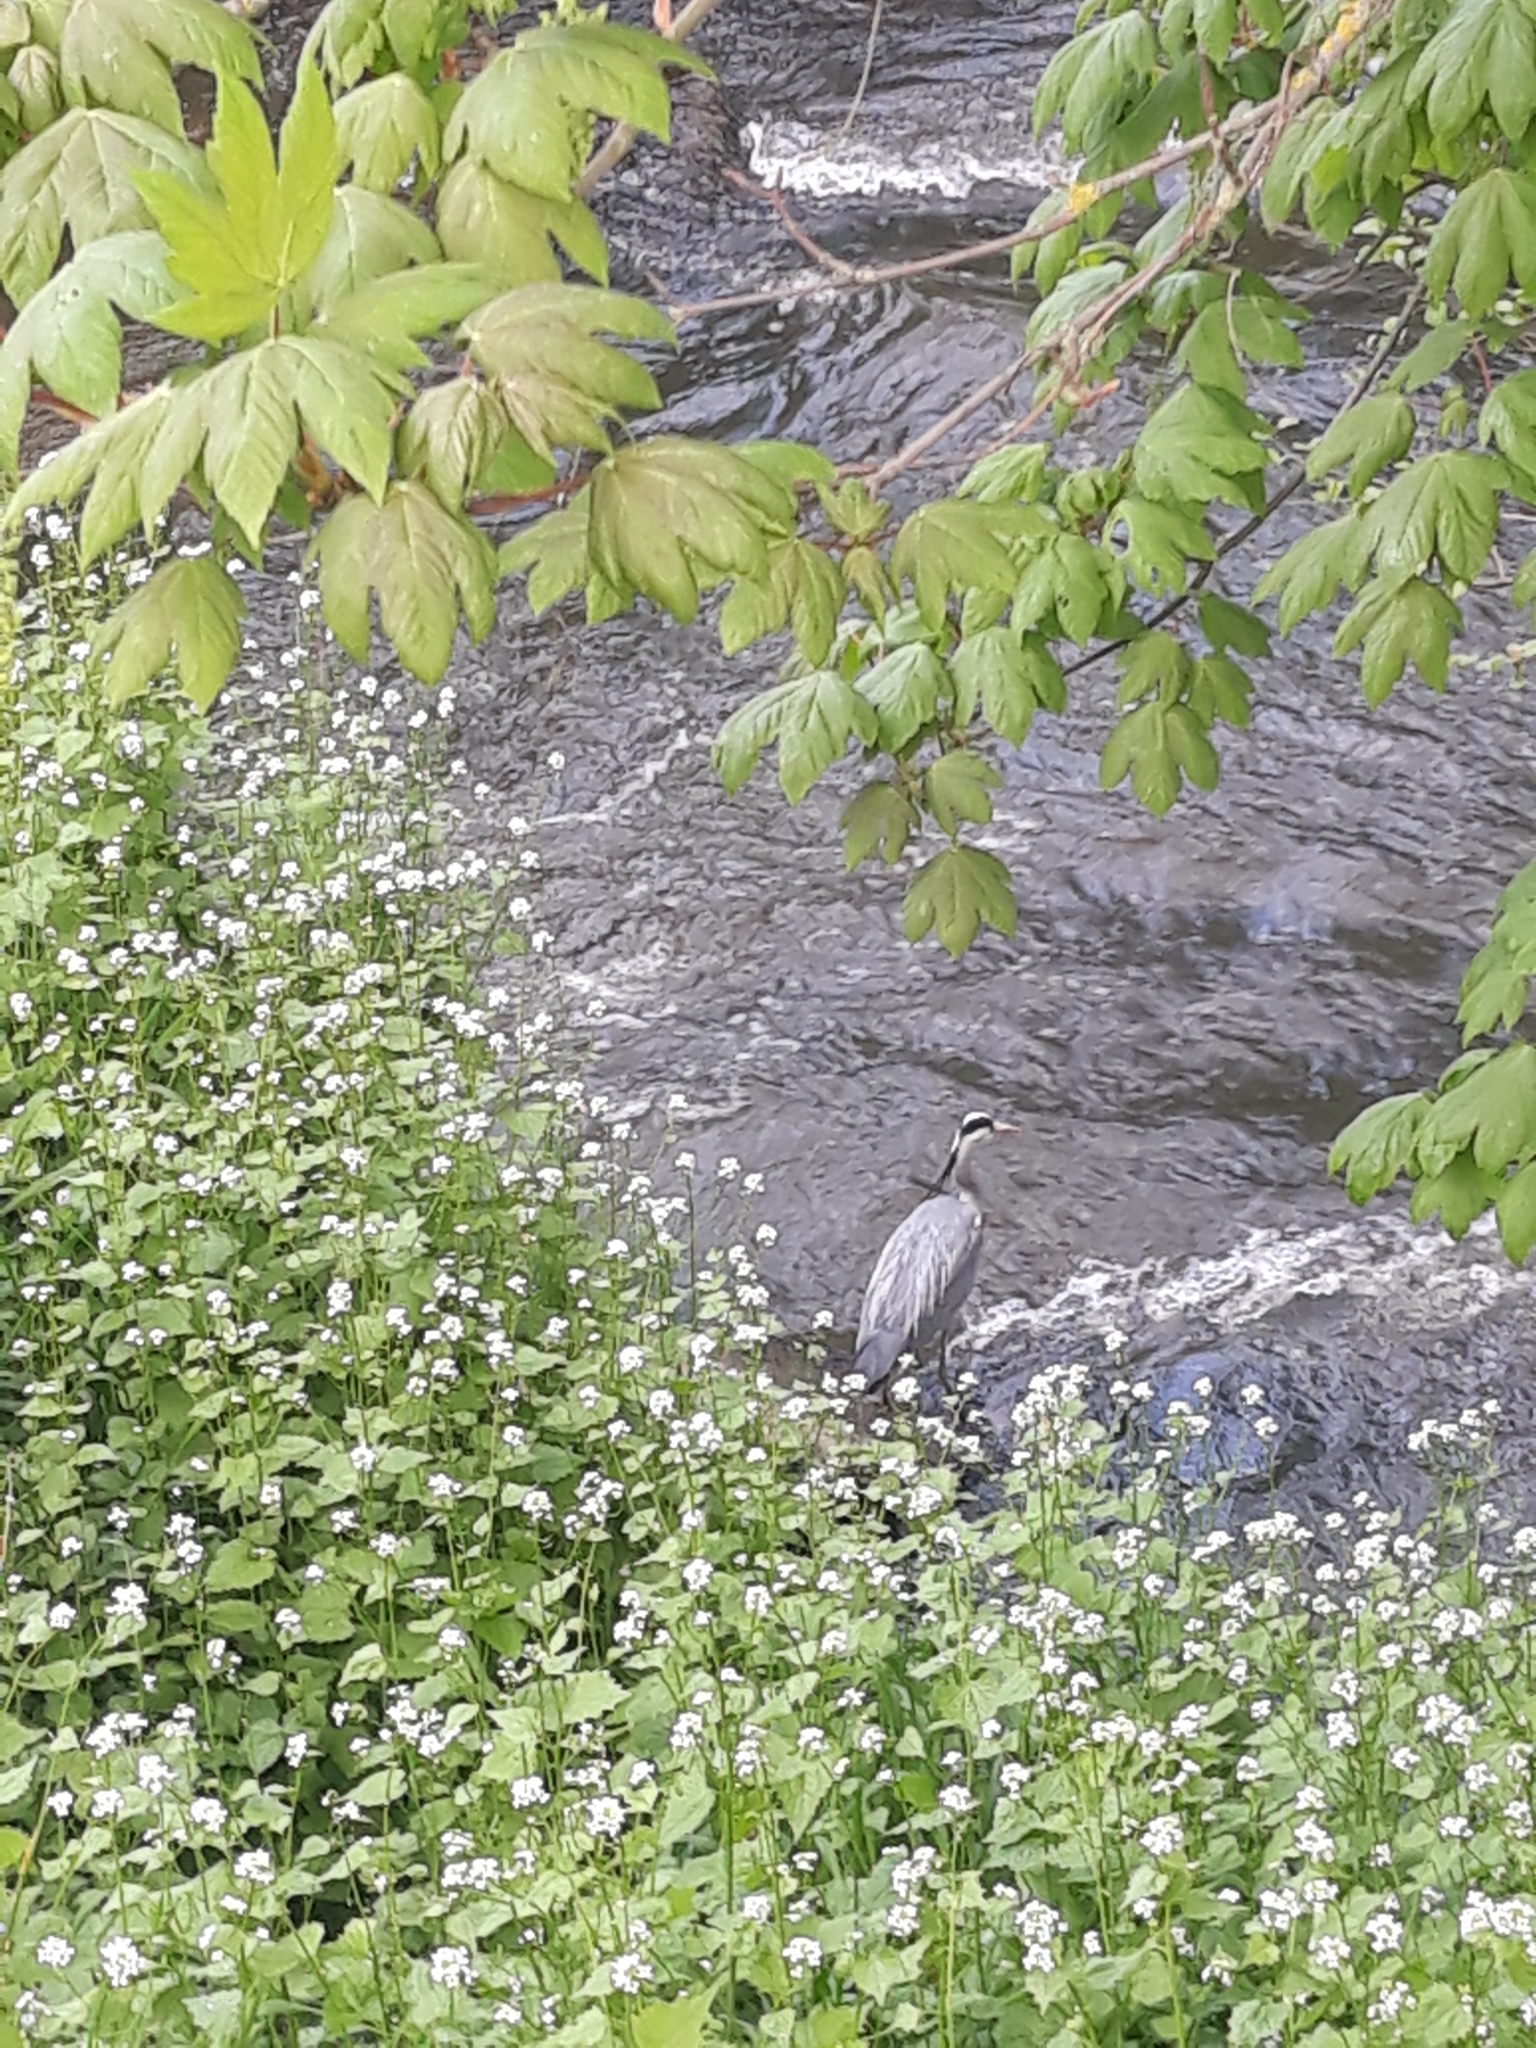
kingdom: Animalia
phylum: Chordata
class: Aves
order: Pelecaniformes
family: Ardeidae
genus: Ardea
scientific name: Ardea cinerea
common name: Grey heron
